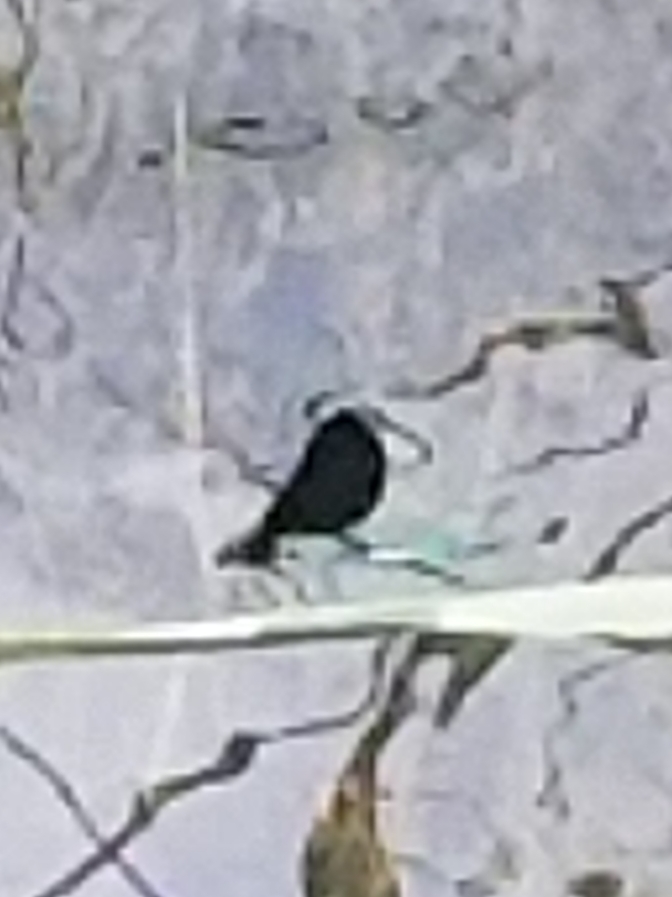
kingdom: Animalia
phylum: Arthropoda
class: Insecta
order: Odonata
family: Calopterygidae
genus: Calopteryx
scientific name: Calopteryx maculata
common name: Ebony jewelwing
